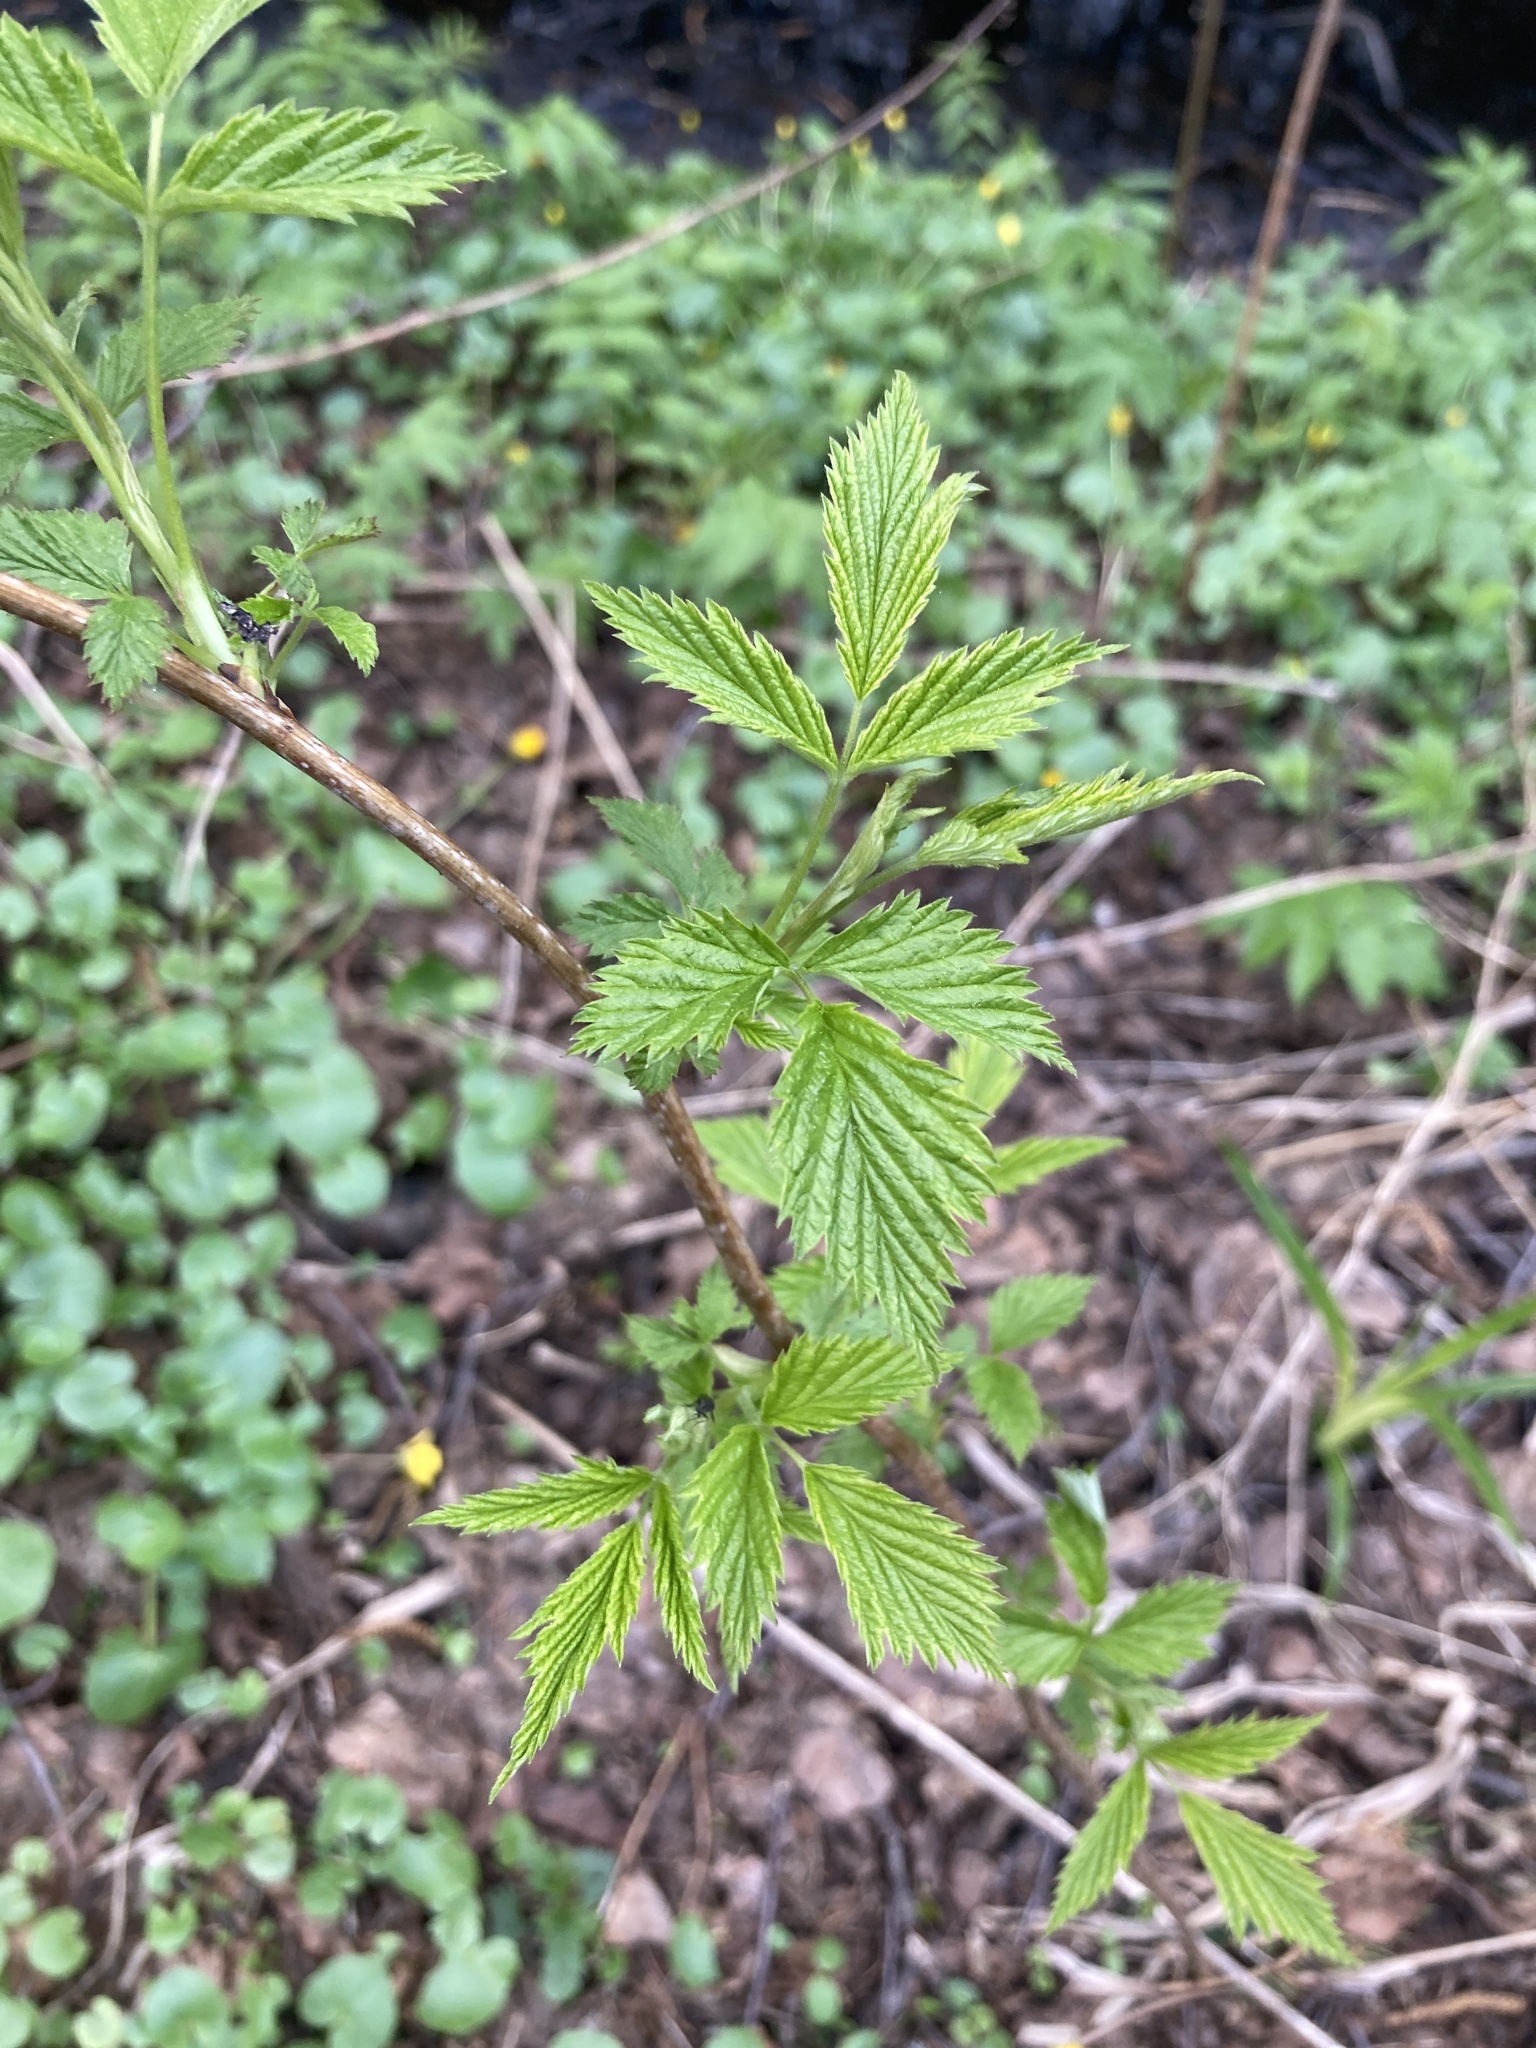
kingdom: Plantae
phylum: Tracheophyta
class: Magnoliopsida
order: Rosales
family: Rosaceae
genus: Rubus
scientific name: Rubus idaeus
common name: Raspberry
